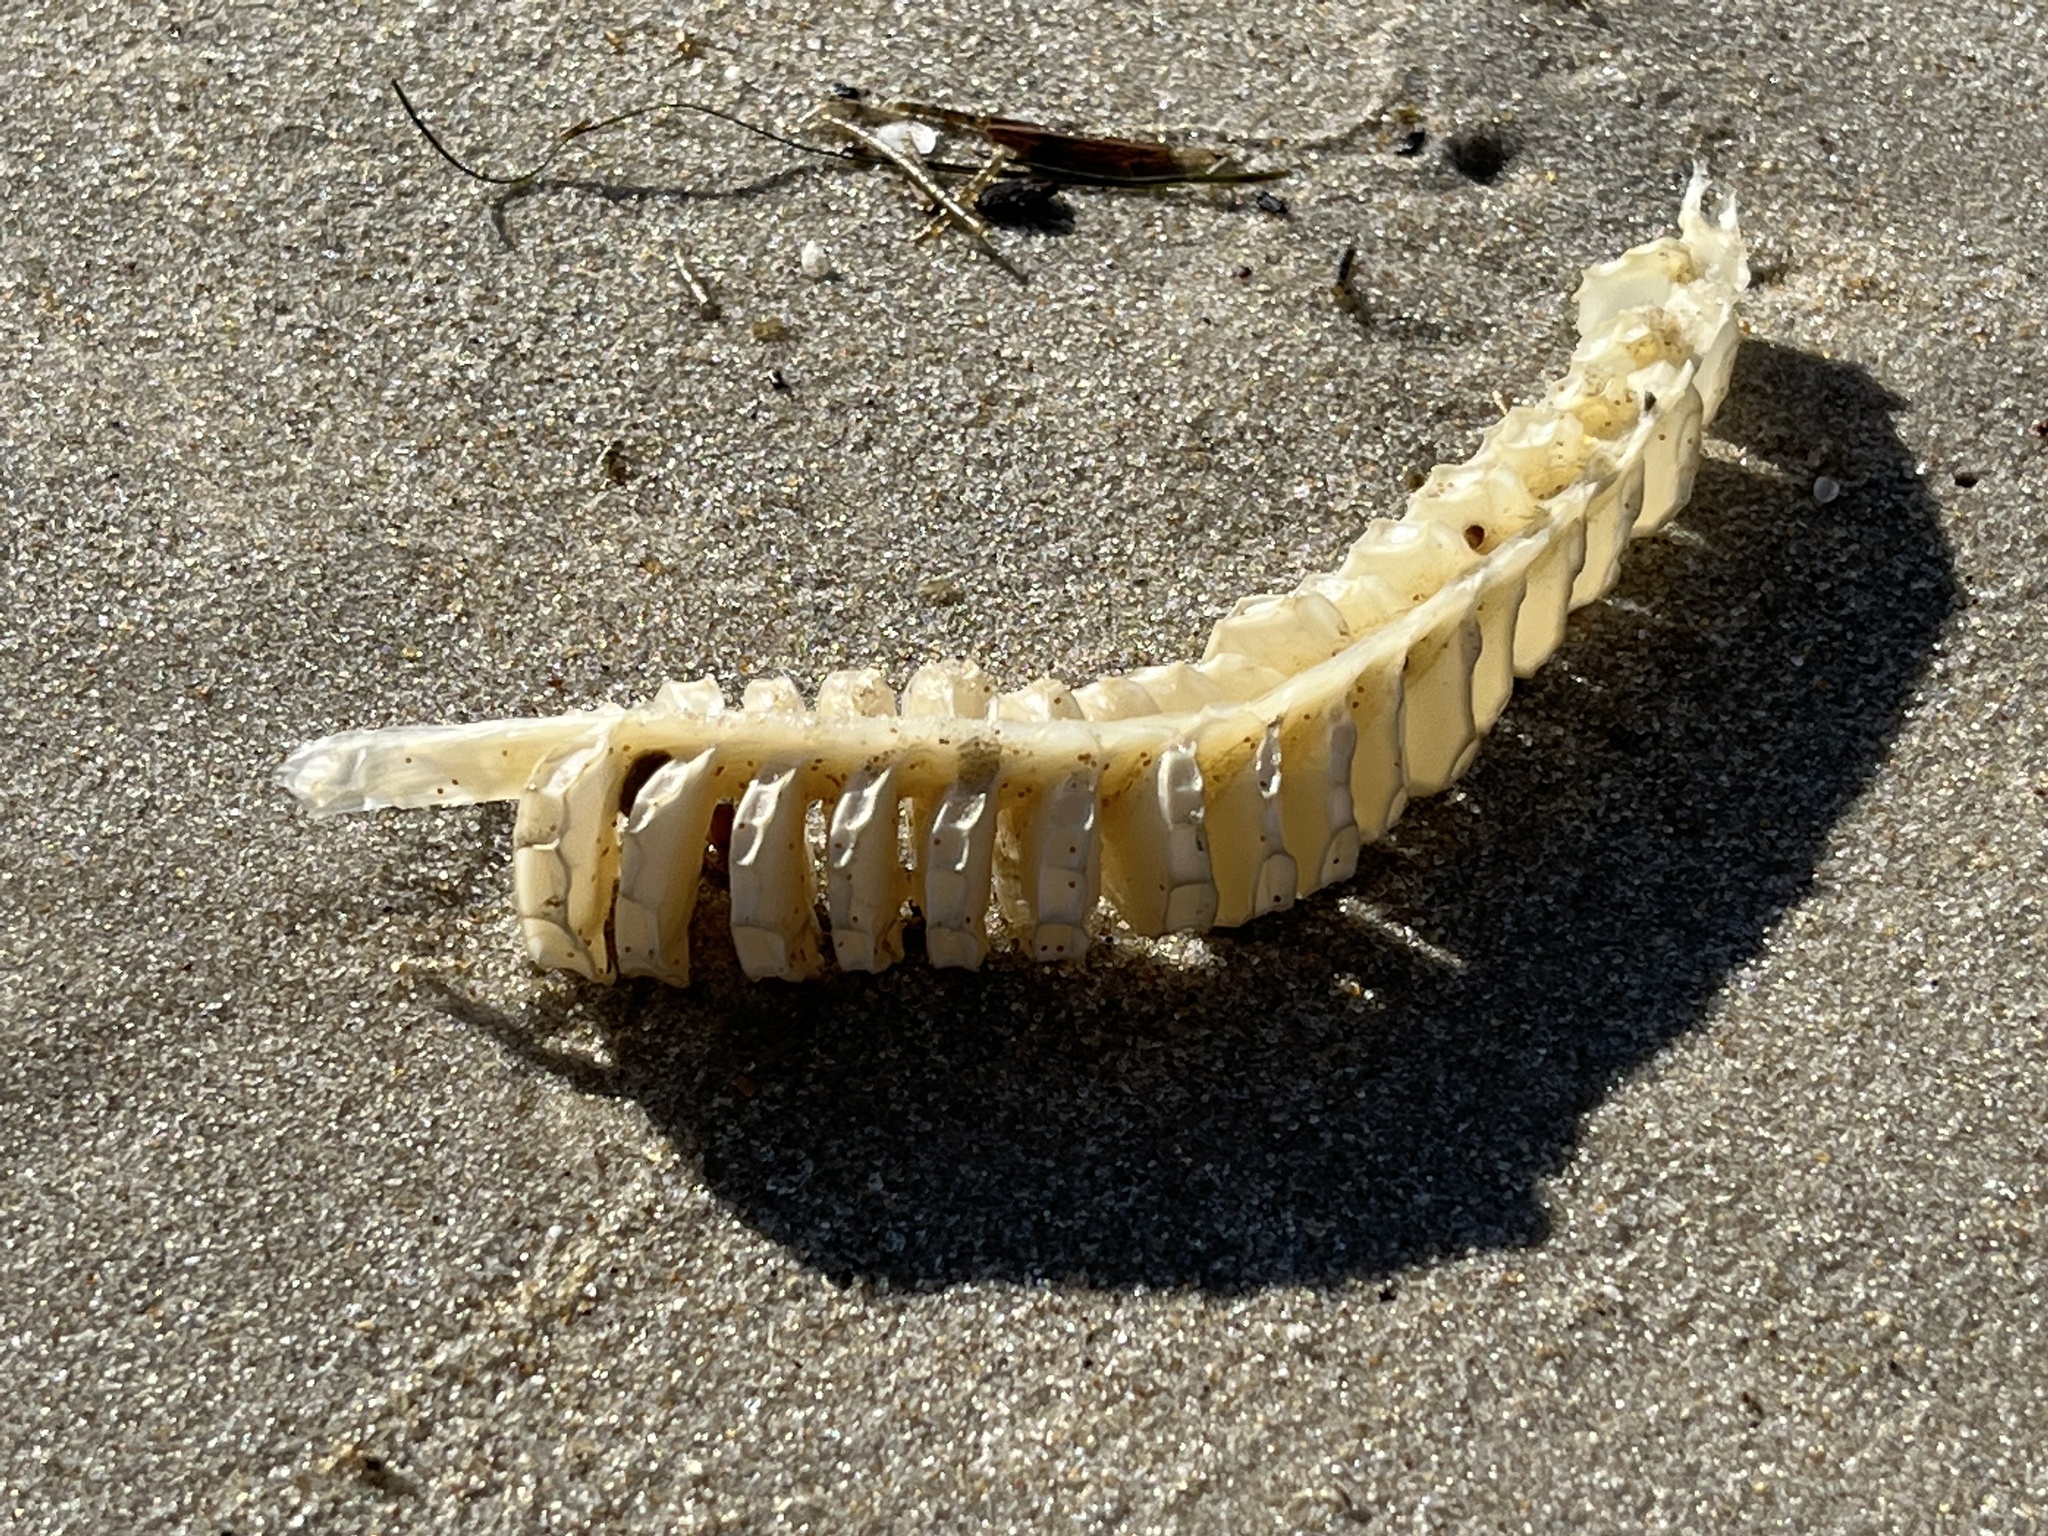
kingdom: Animalia
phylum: Mollusca
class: Gastropoda
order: Neogastropoda
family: Busyconidae
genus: Busycon
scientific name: Busycon carica
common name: Knobbed whelk
